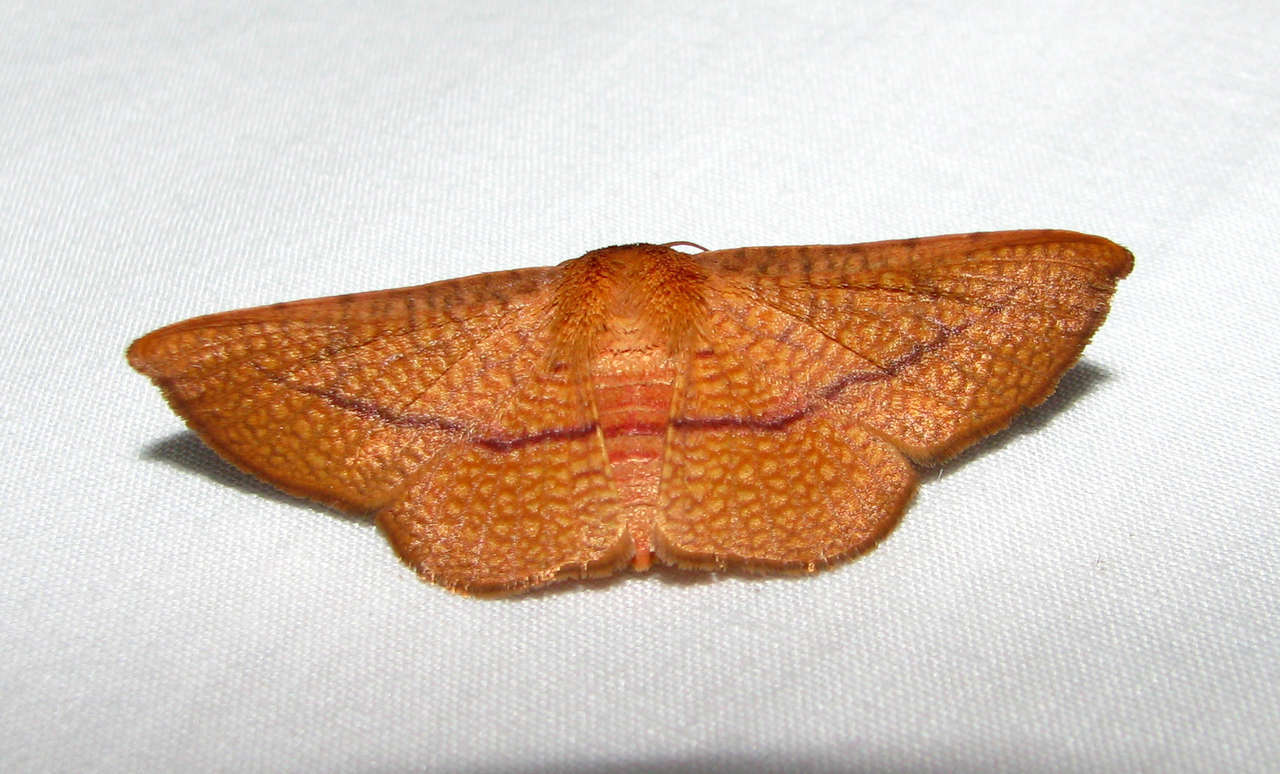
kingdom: Animalia
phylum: Arthropoda
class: Insecta
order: Lepidoptera
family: Thyrididae
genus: Aglaopus
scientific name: Aglaopus pyrrhata
